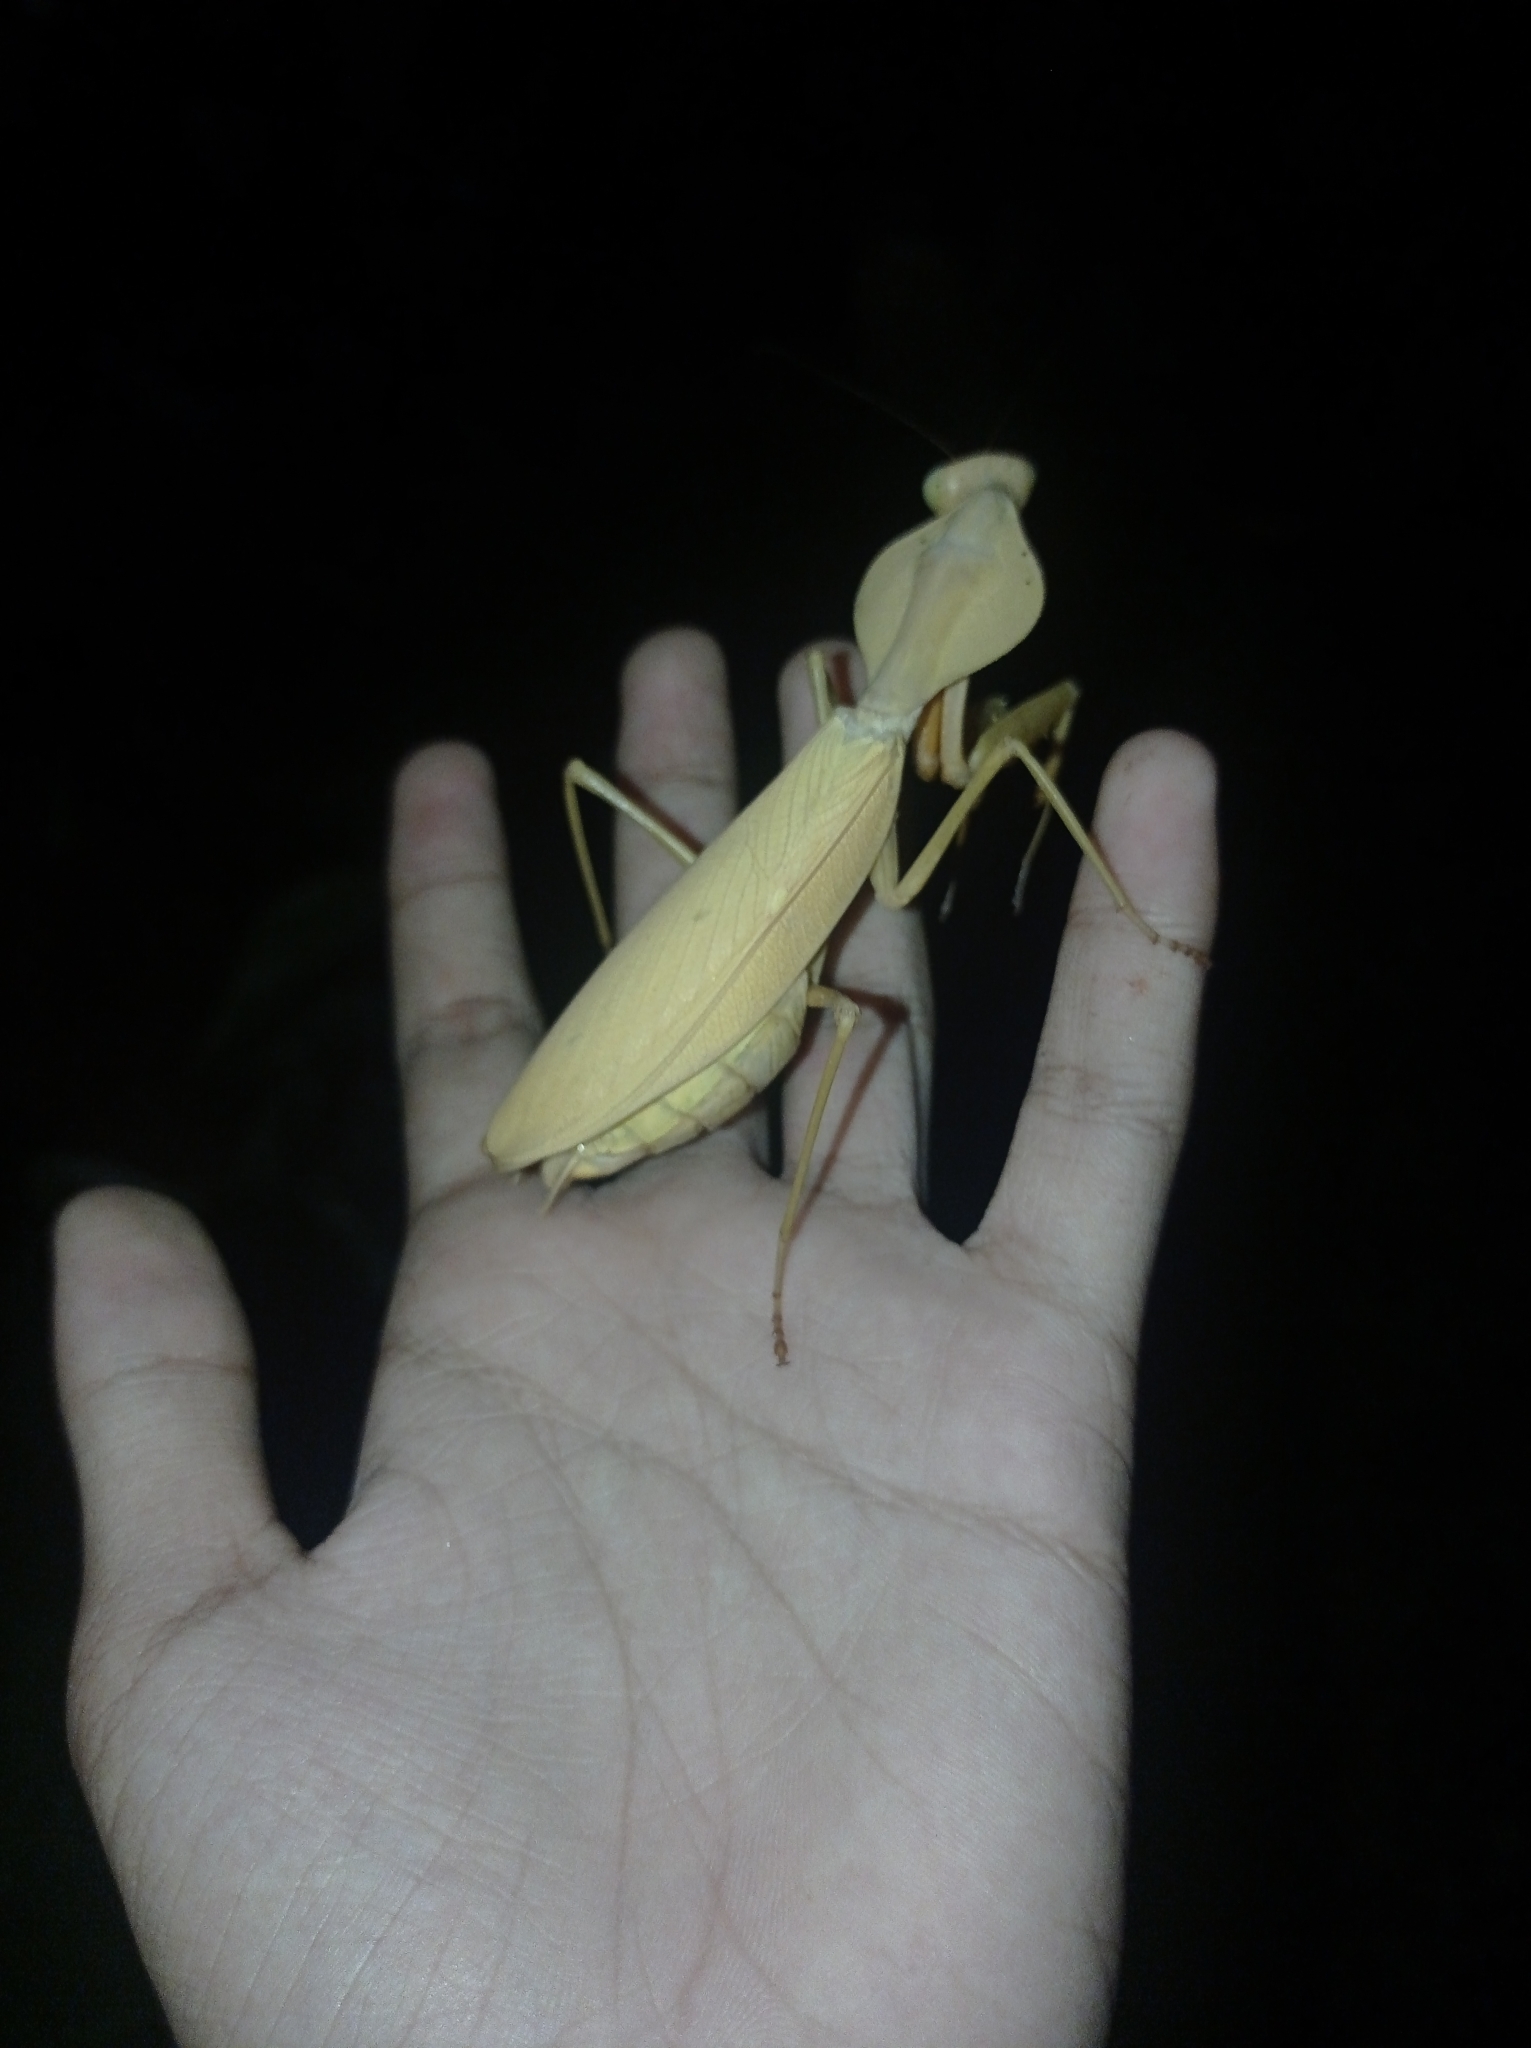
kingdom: Animalia
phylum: Arthropoda
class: Insecta
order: Mantodea
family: Mantidae
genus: Rhombodera
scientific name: Rhombodera kirbyi
